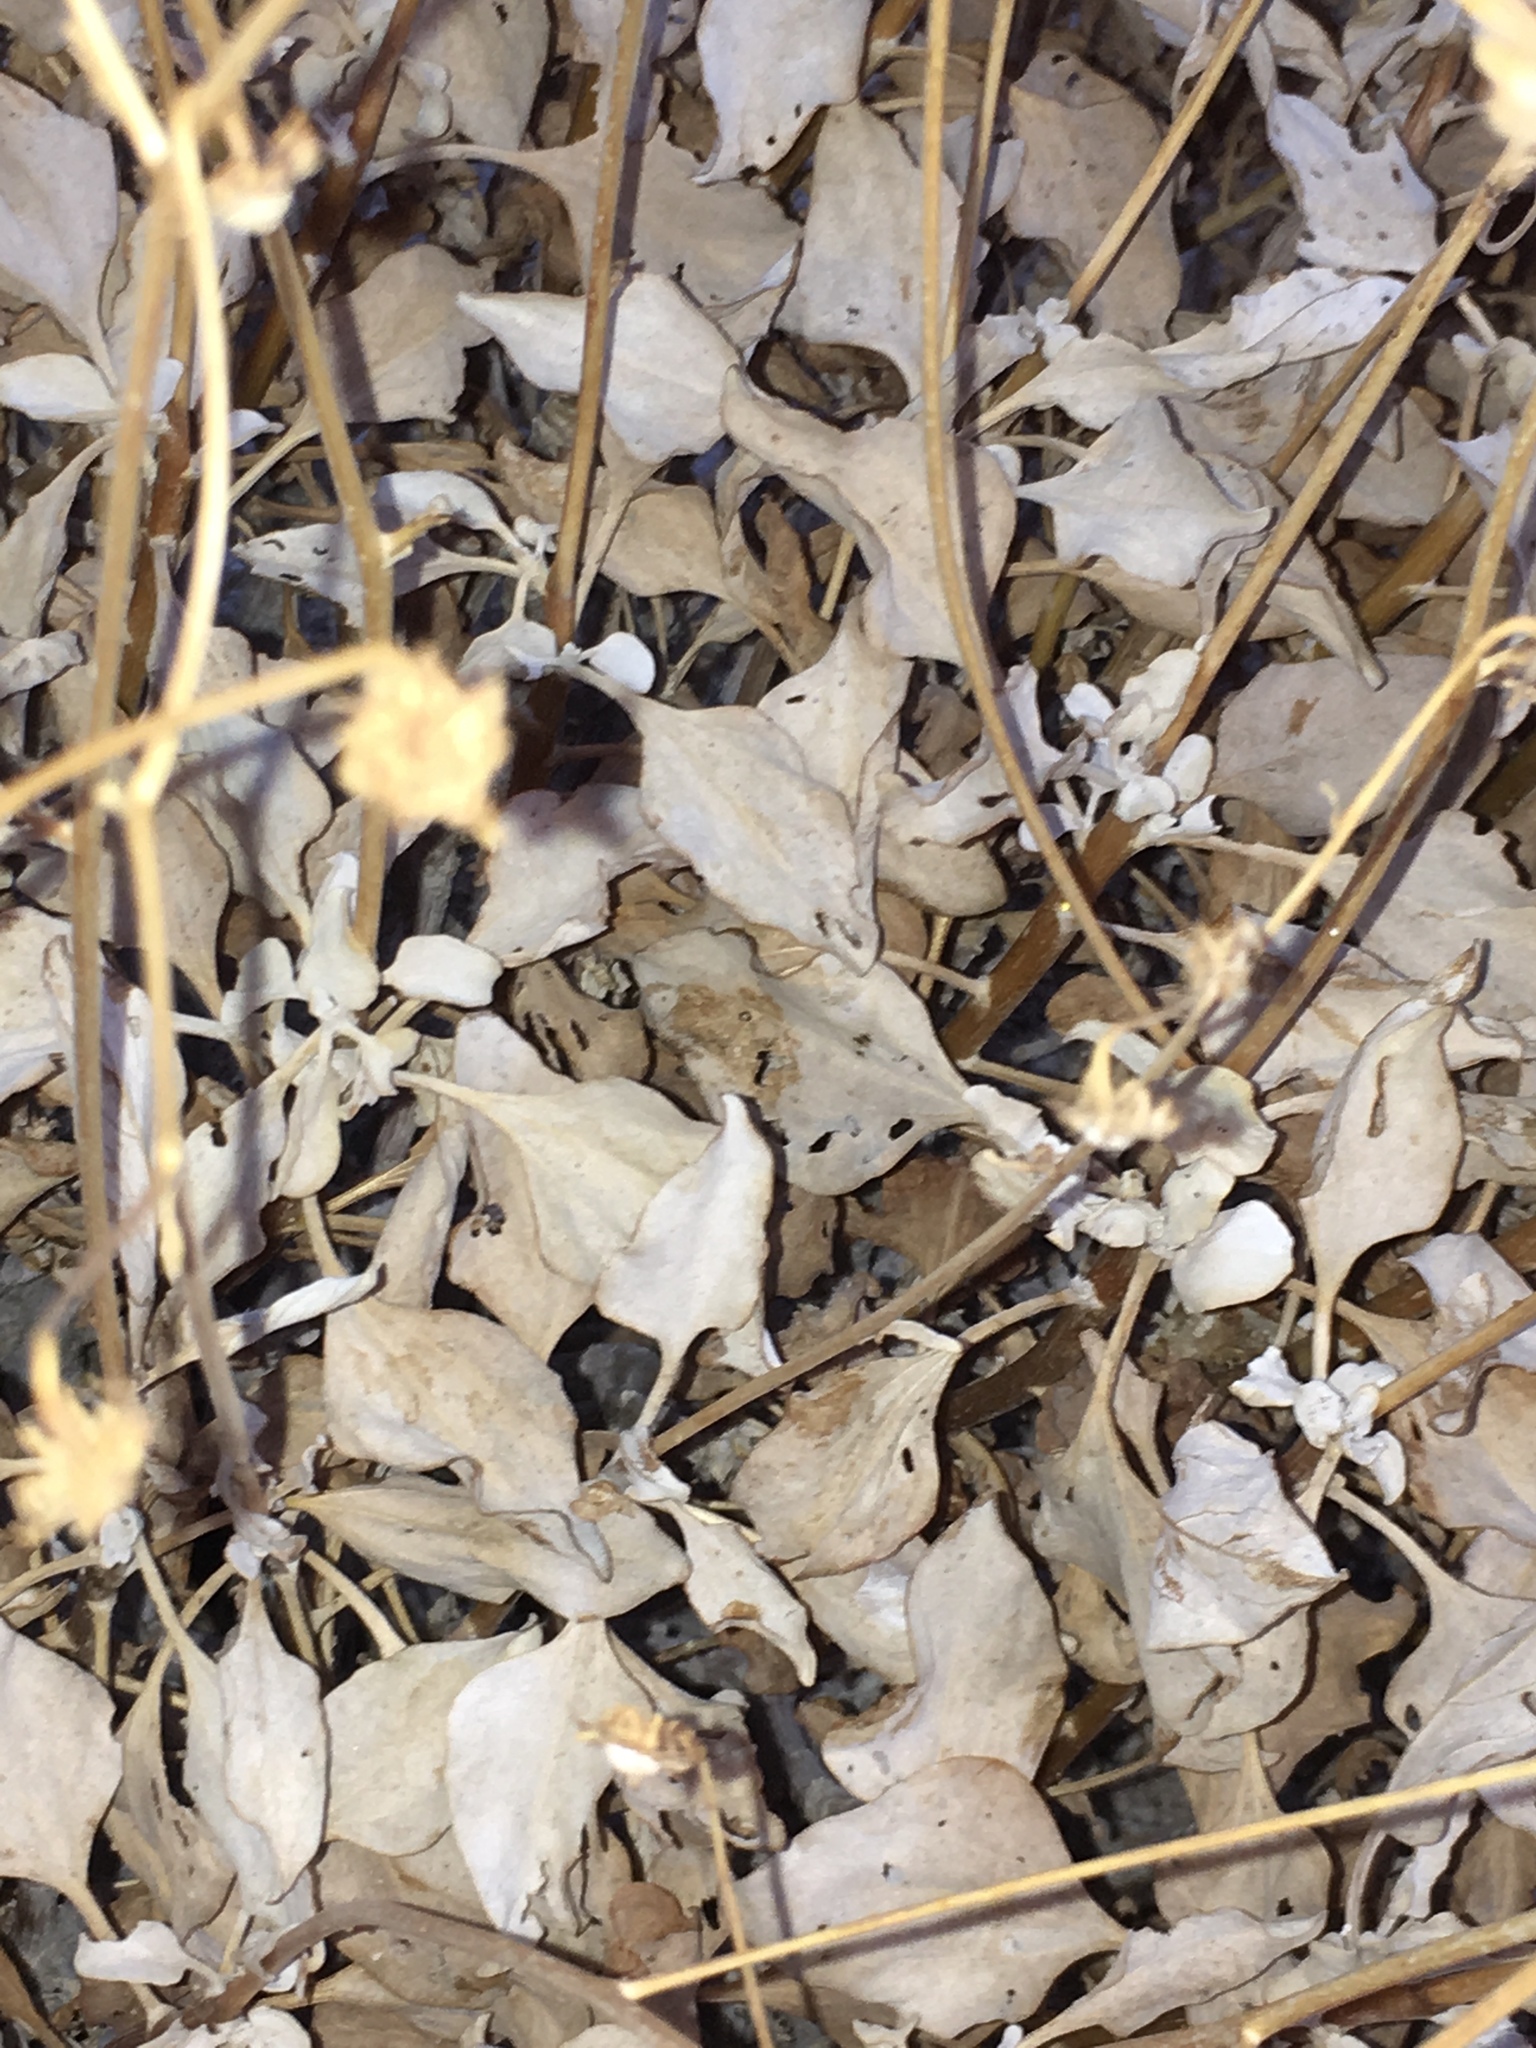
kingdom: Plantae
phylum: Tracheophyta
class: Magnoliopsida
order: Asterales
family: Asteraceae
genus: Encelia
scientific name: Encelia farinosa
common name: Brittlebush
